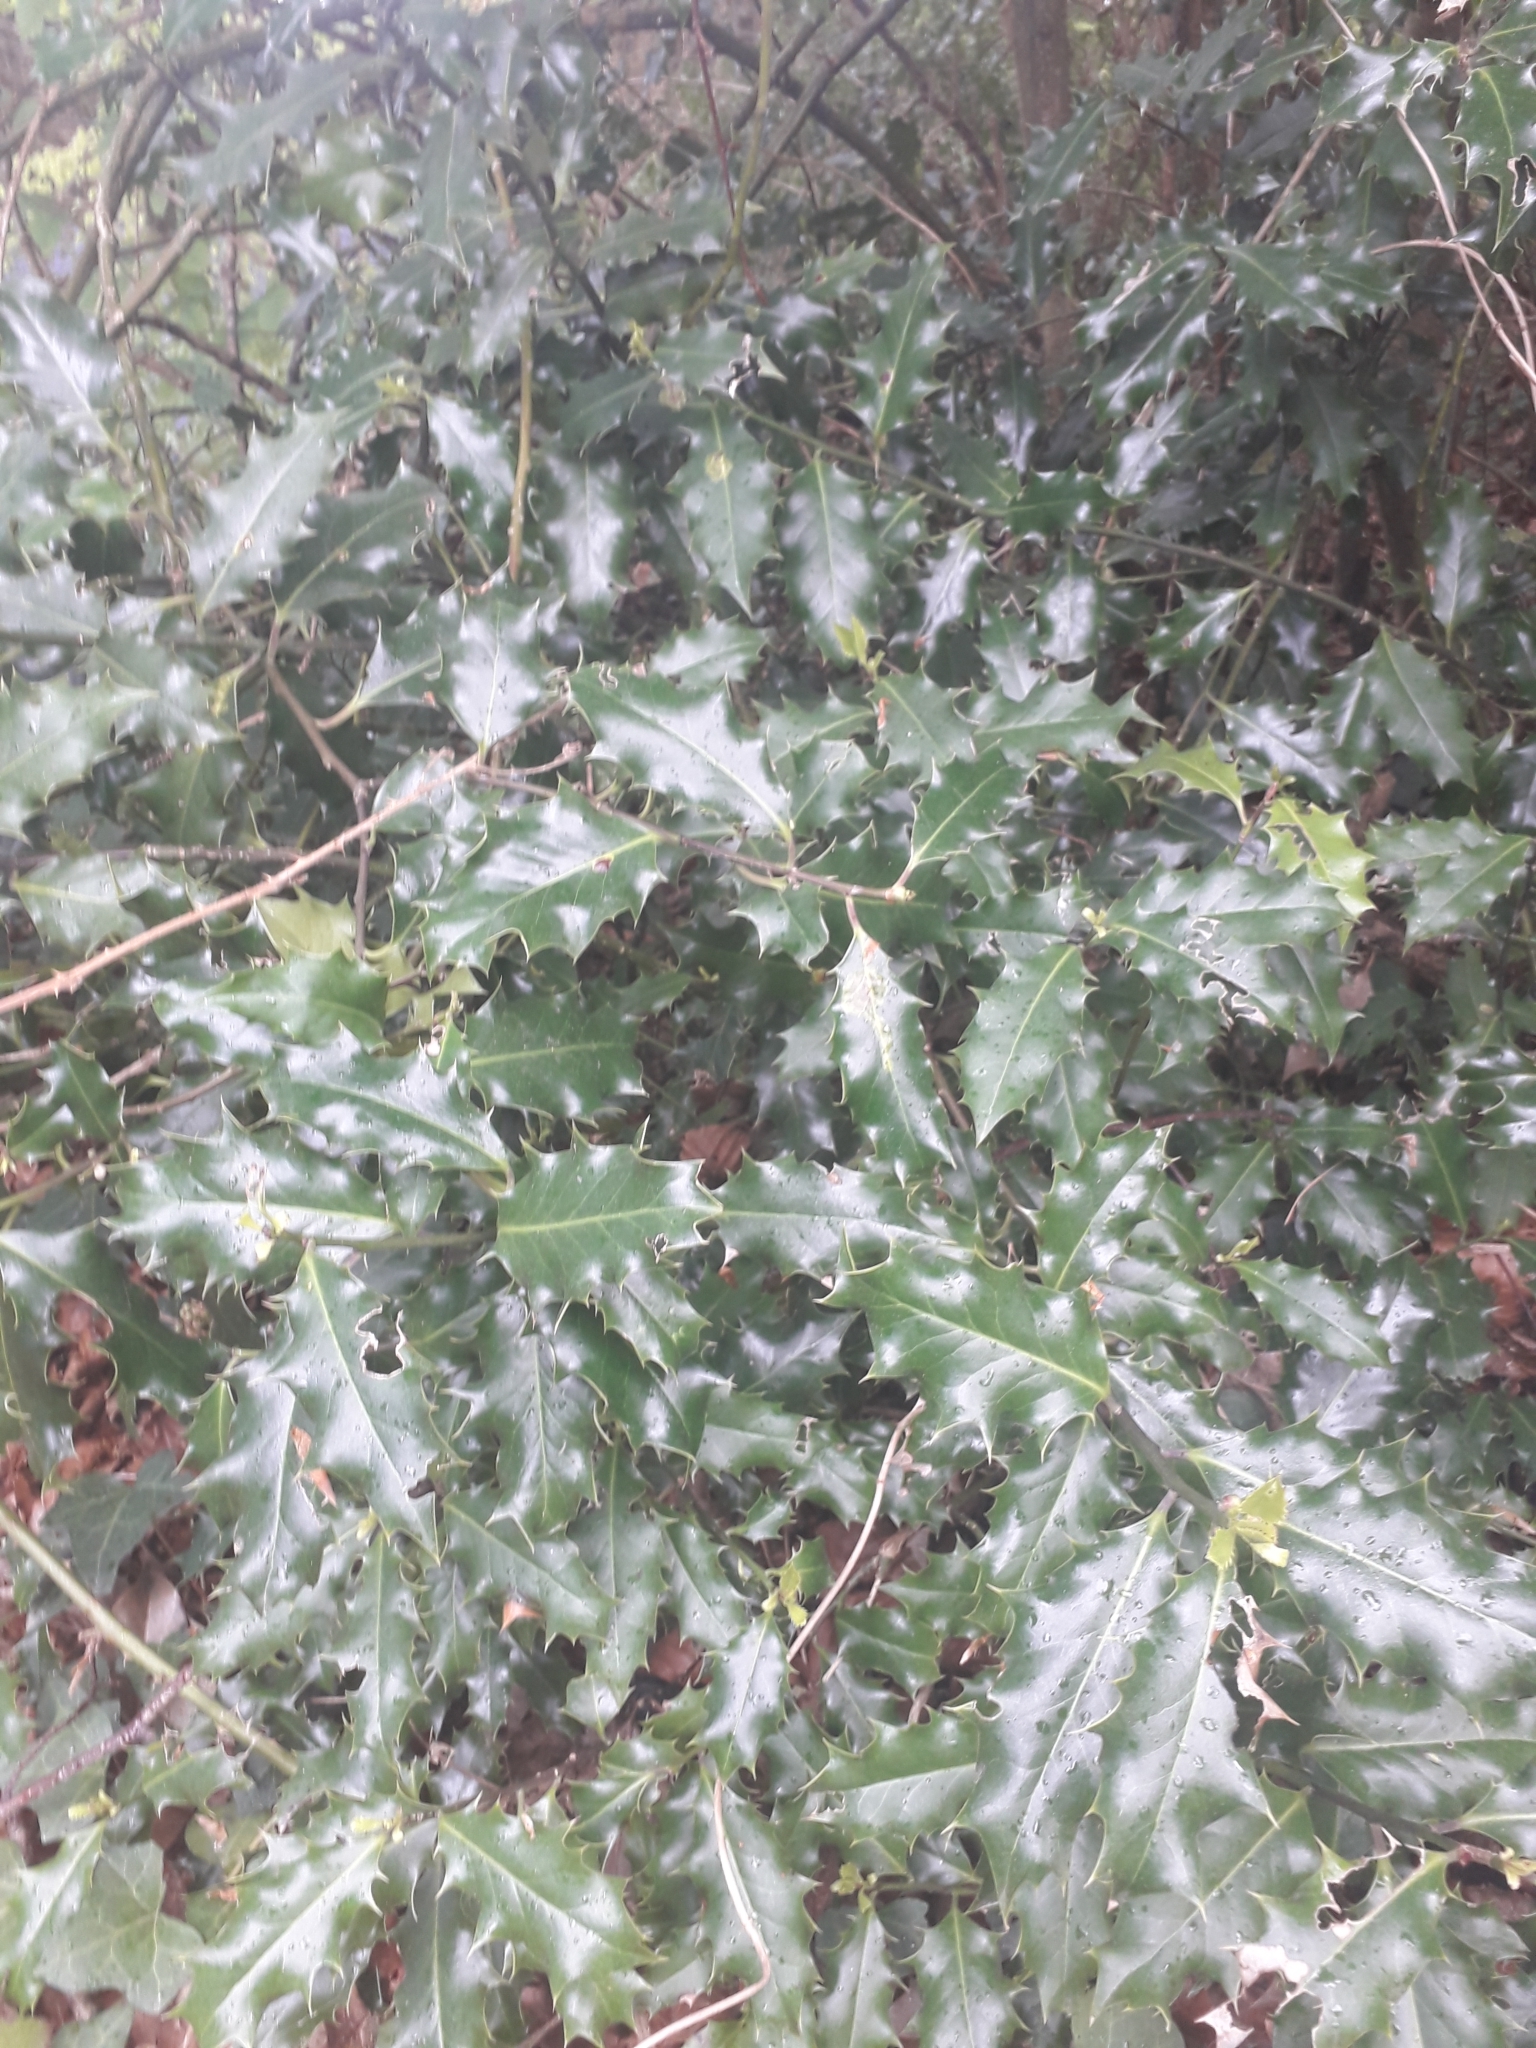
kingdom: Plantae
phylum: Tracheophyta
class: Magnoliopsida
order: Aquifoliales
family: Aquifoliaceae
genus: Ilex
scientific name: Ilex aquifolium
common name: English holly
